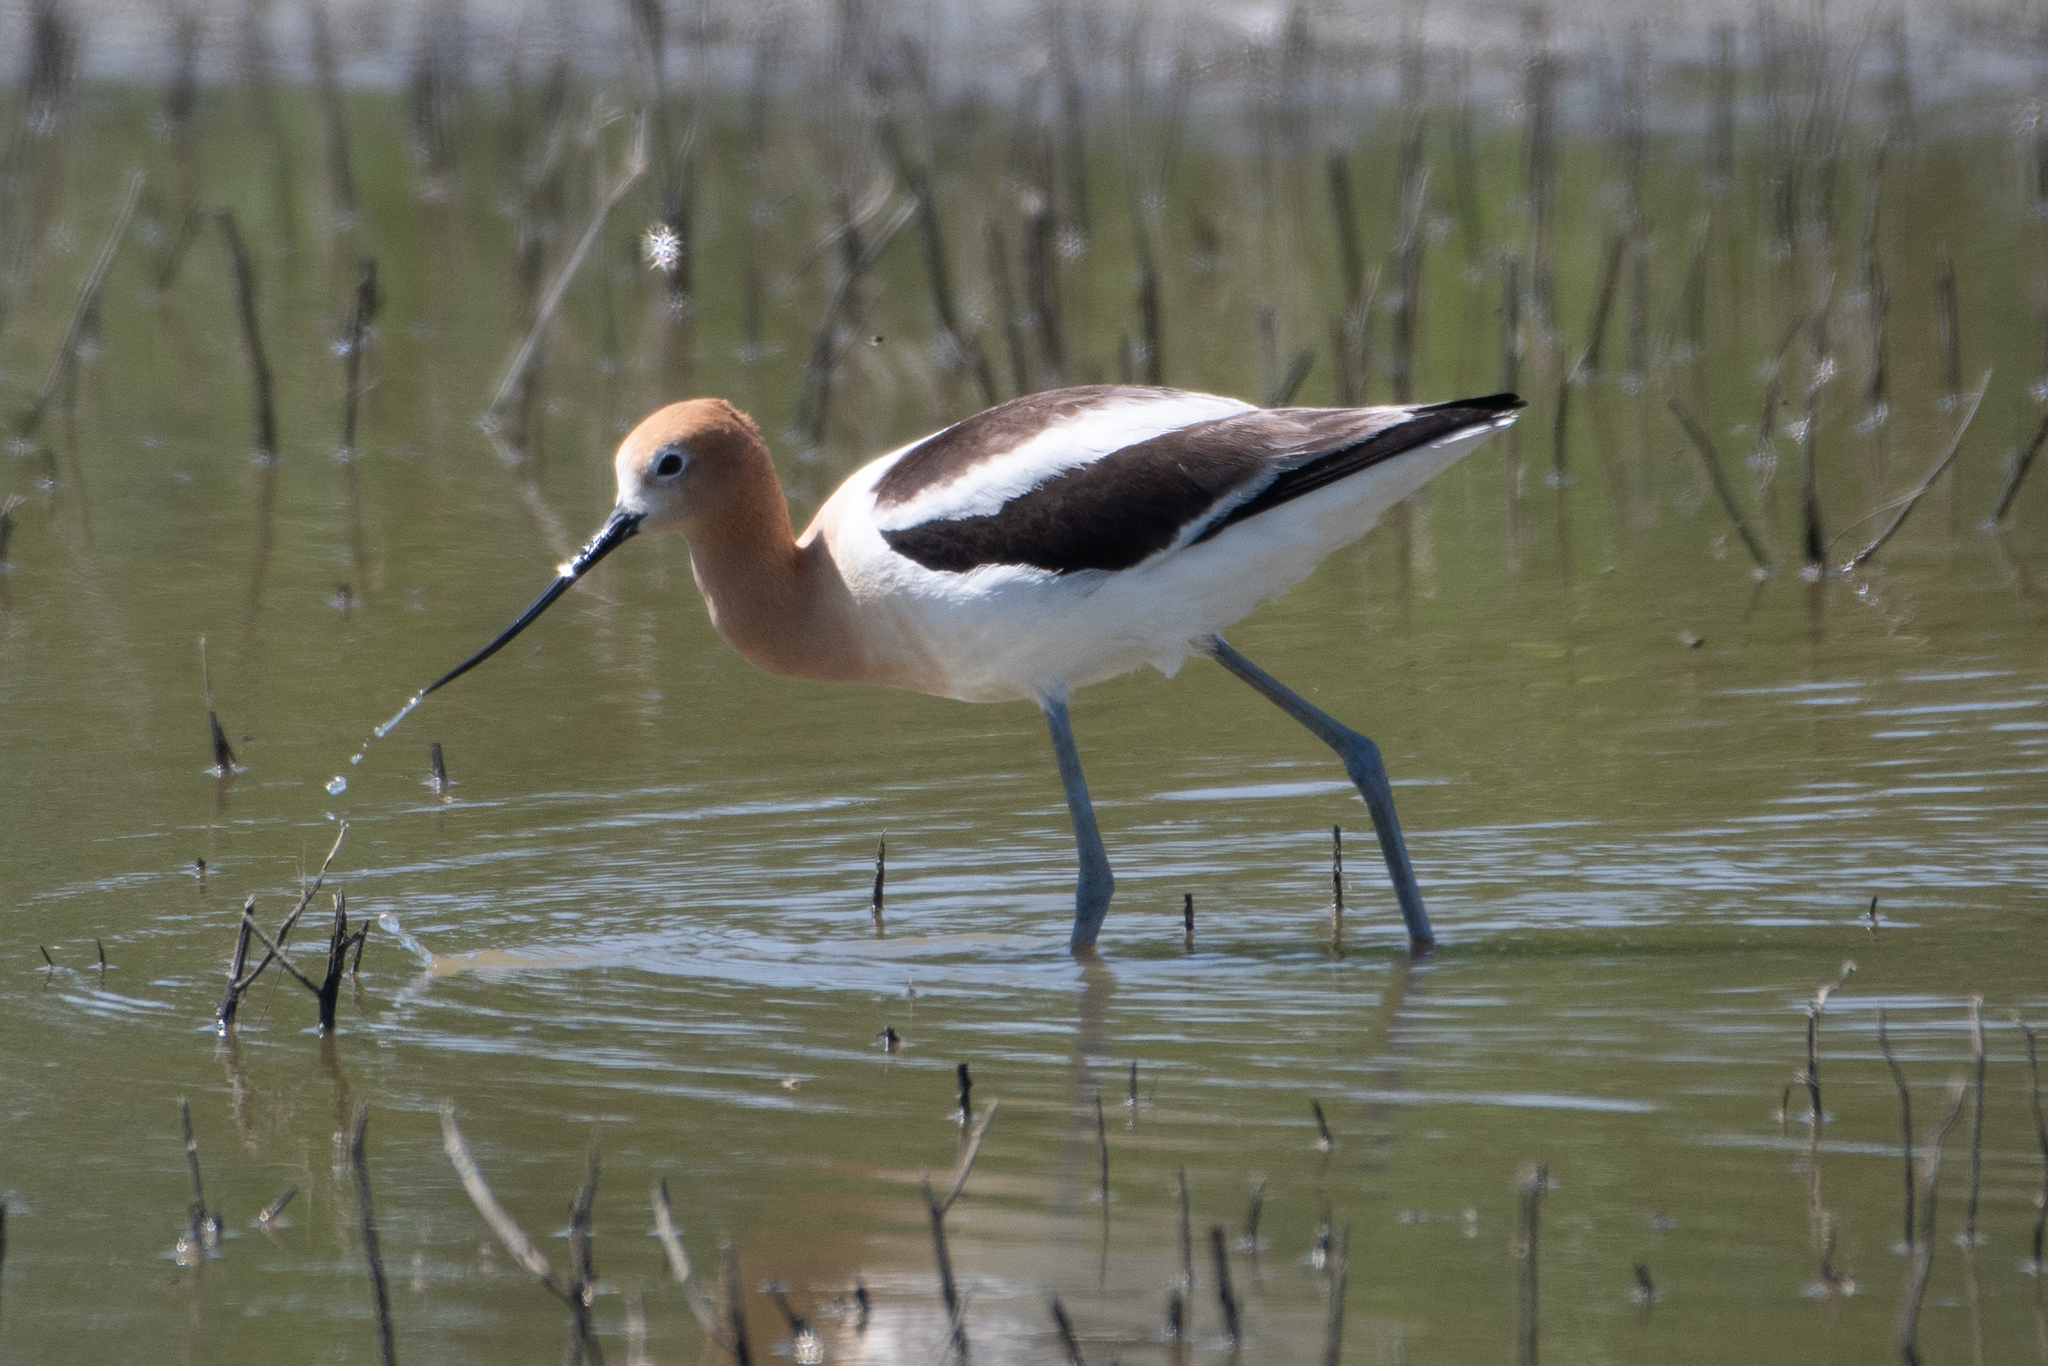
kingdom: Animalia
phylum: Chordata
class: Aves
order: Charadriiformes
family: Recurvirostridae
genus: Recurvirostra
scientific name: Recurvirostra americana
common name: American avocet
